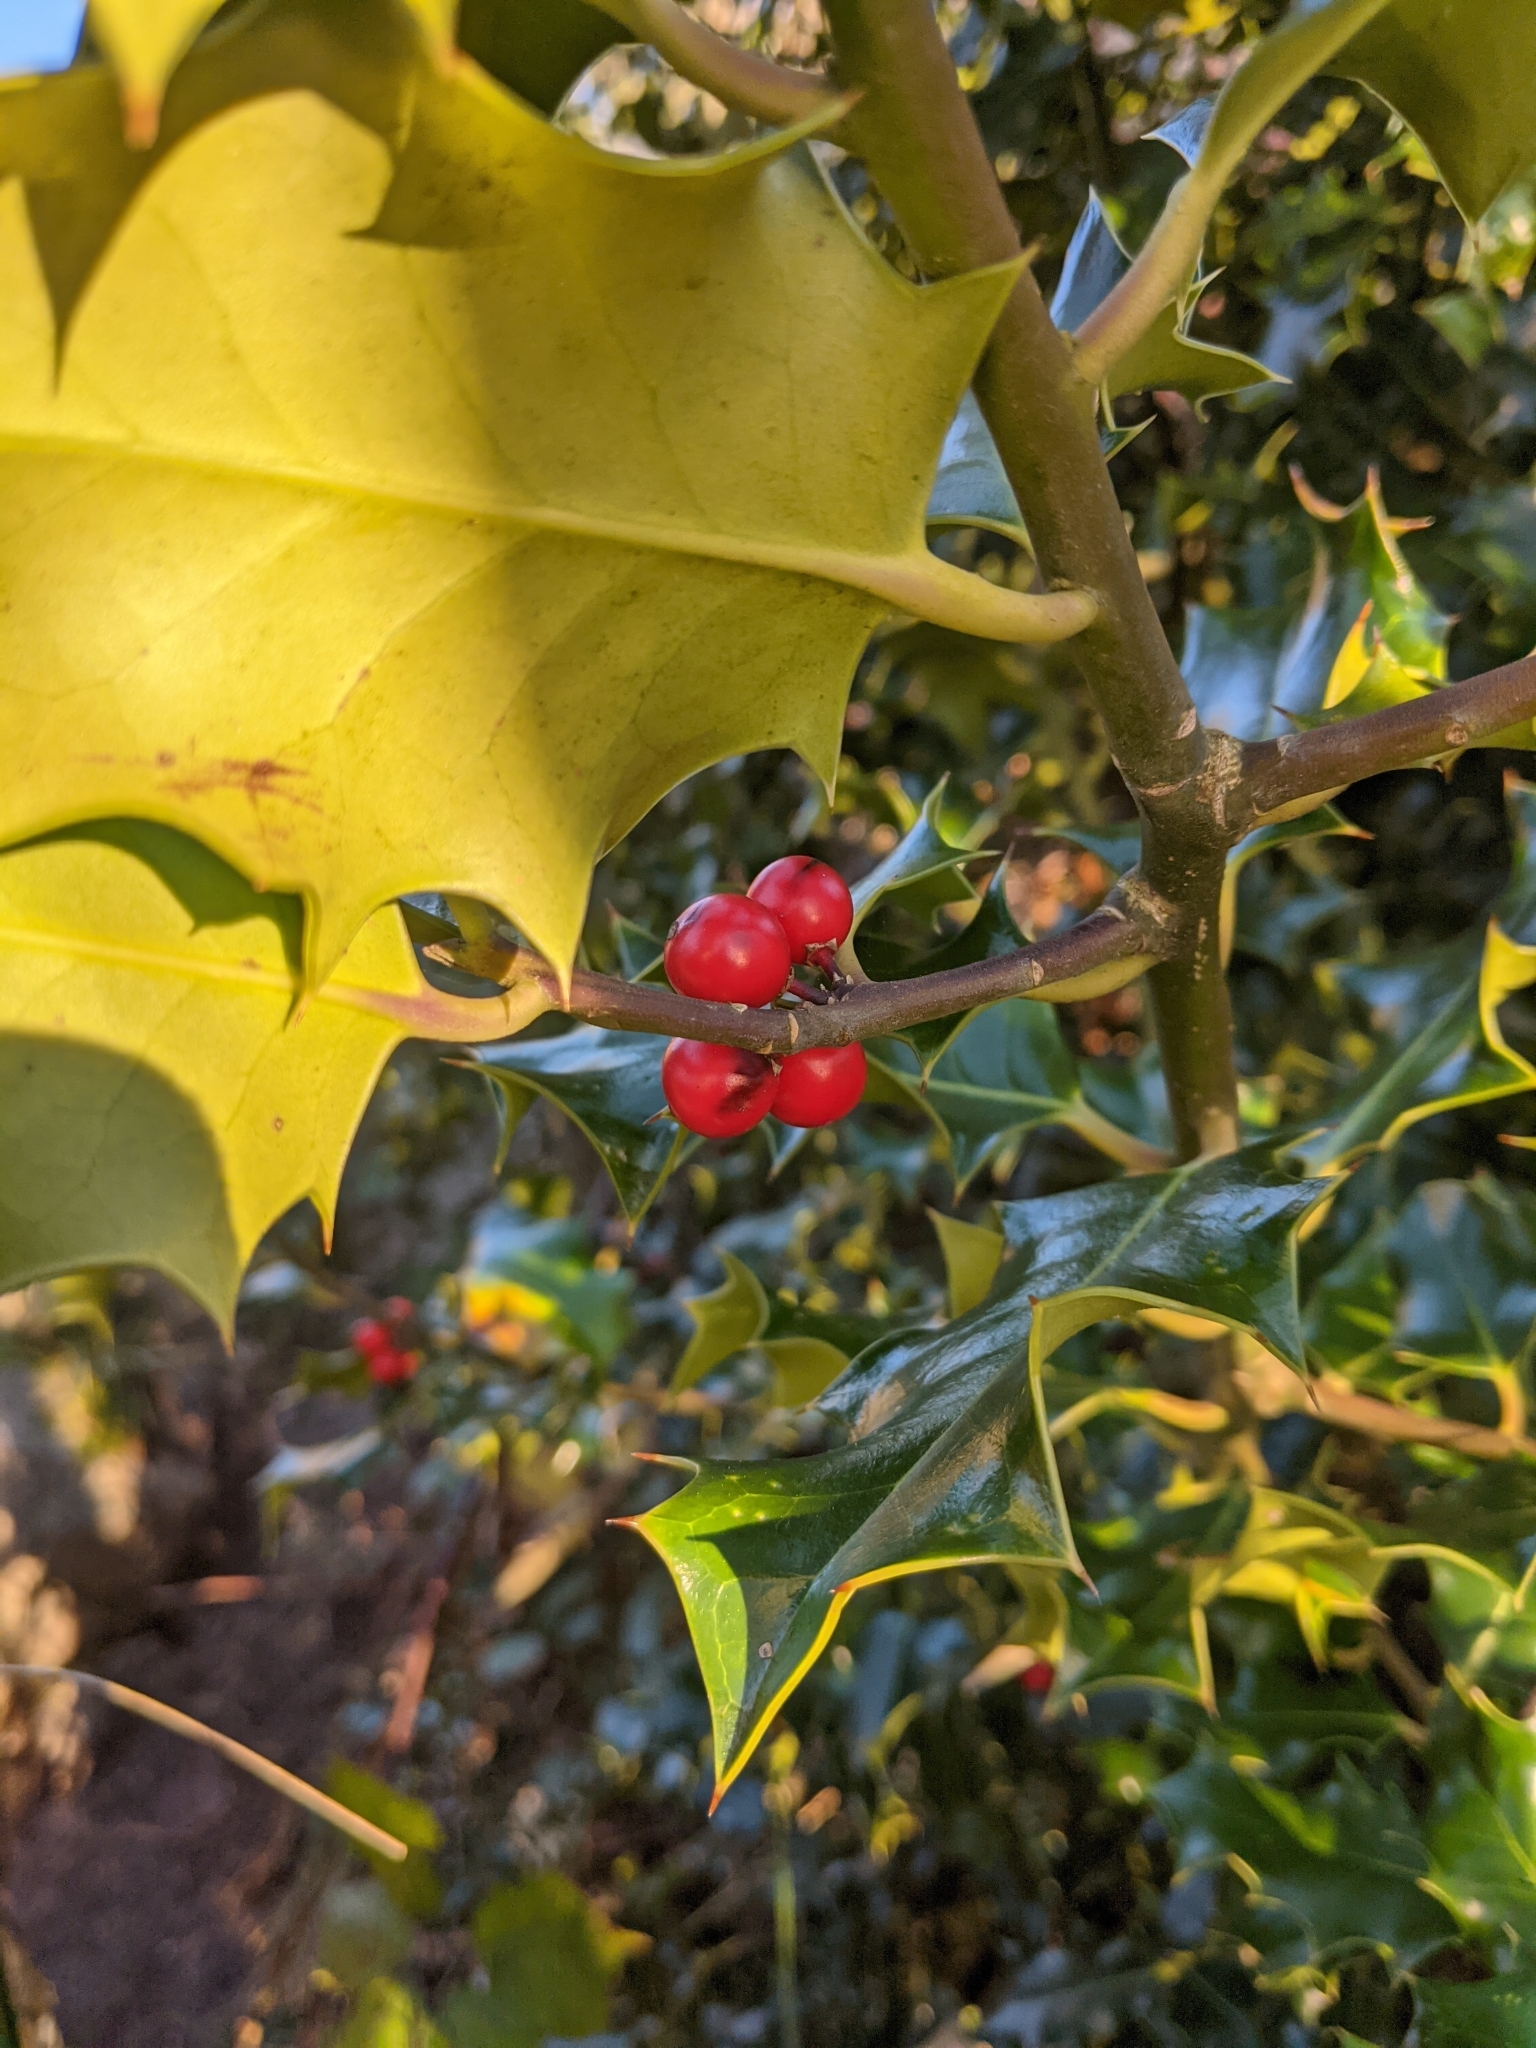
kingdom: Plantae
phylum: Tracheophyta
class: Magnoliopsida
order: Aquifoliales
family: Aquifoliaceae
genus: Ilex
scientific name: Ilex aquifolium
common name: English holly
